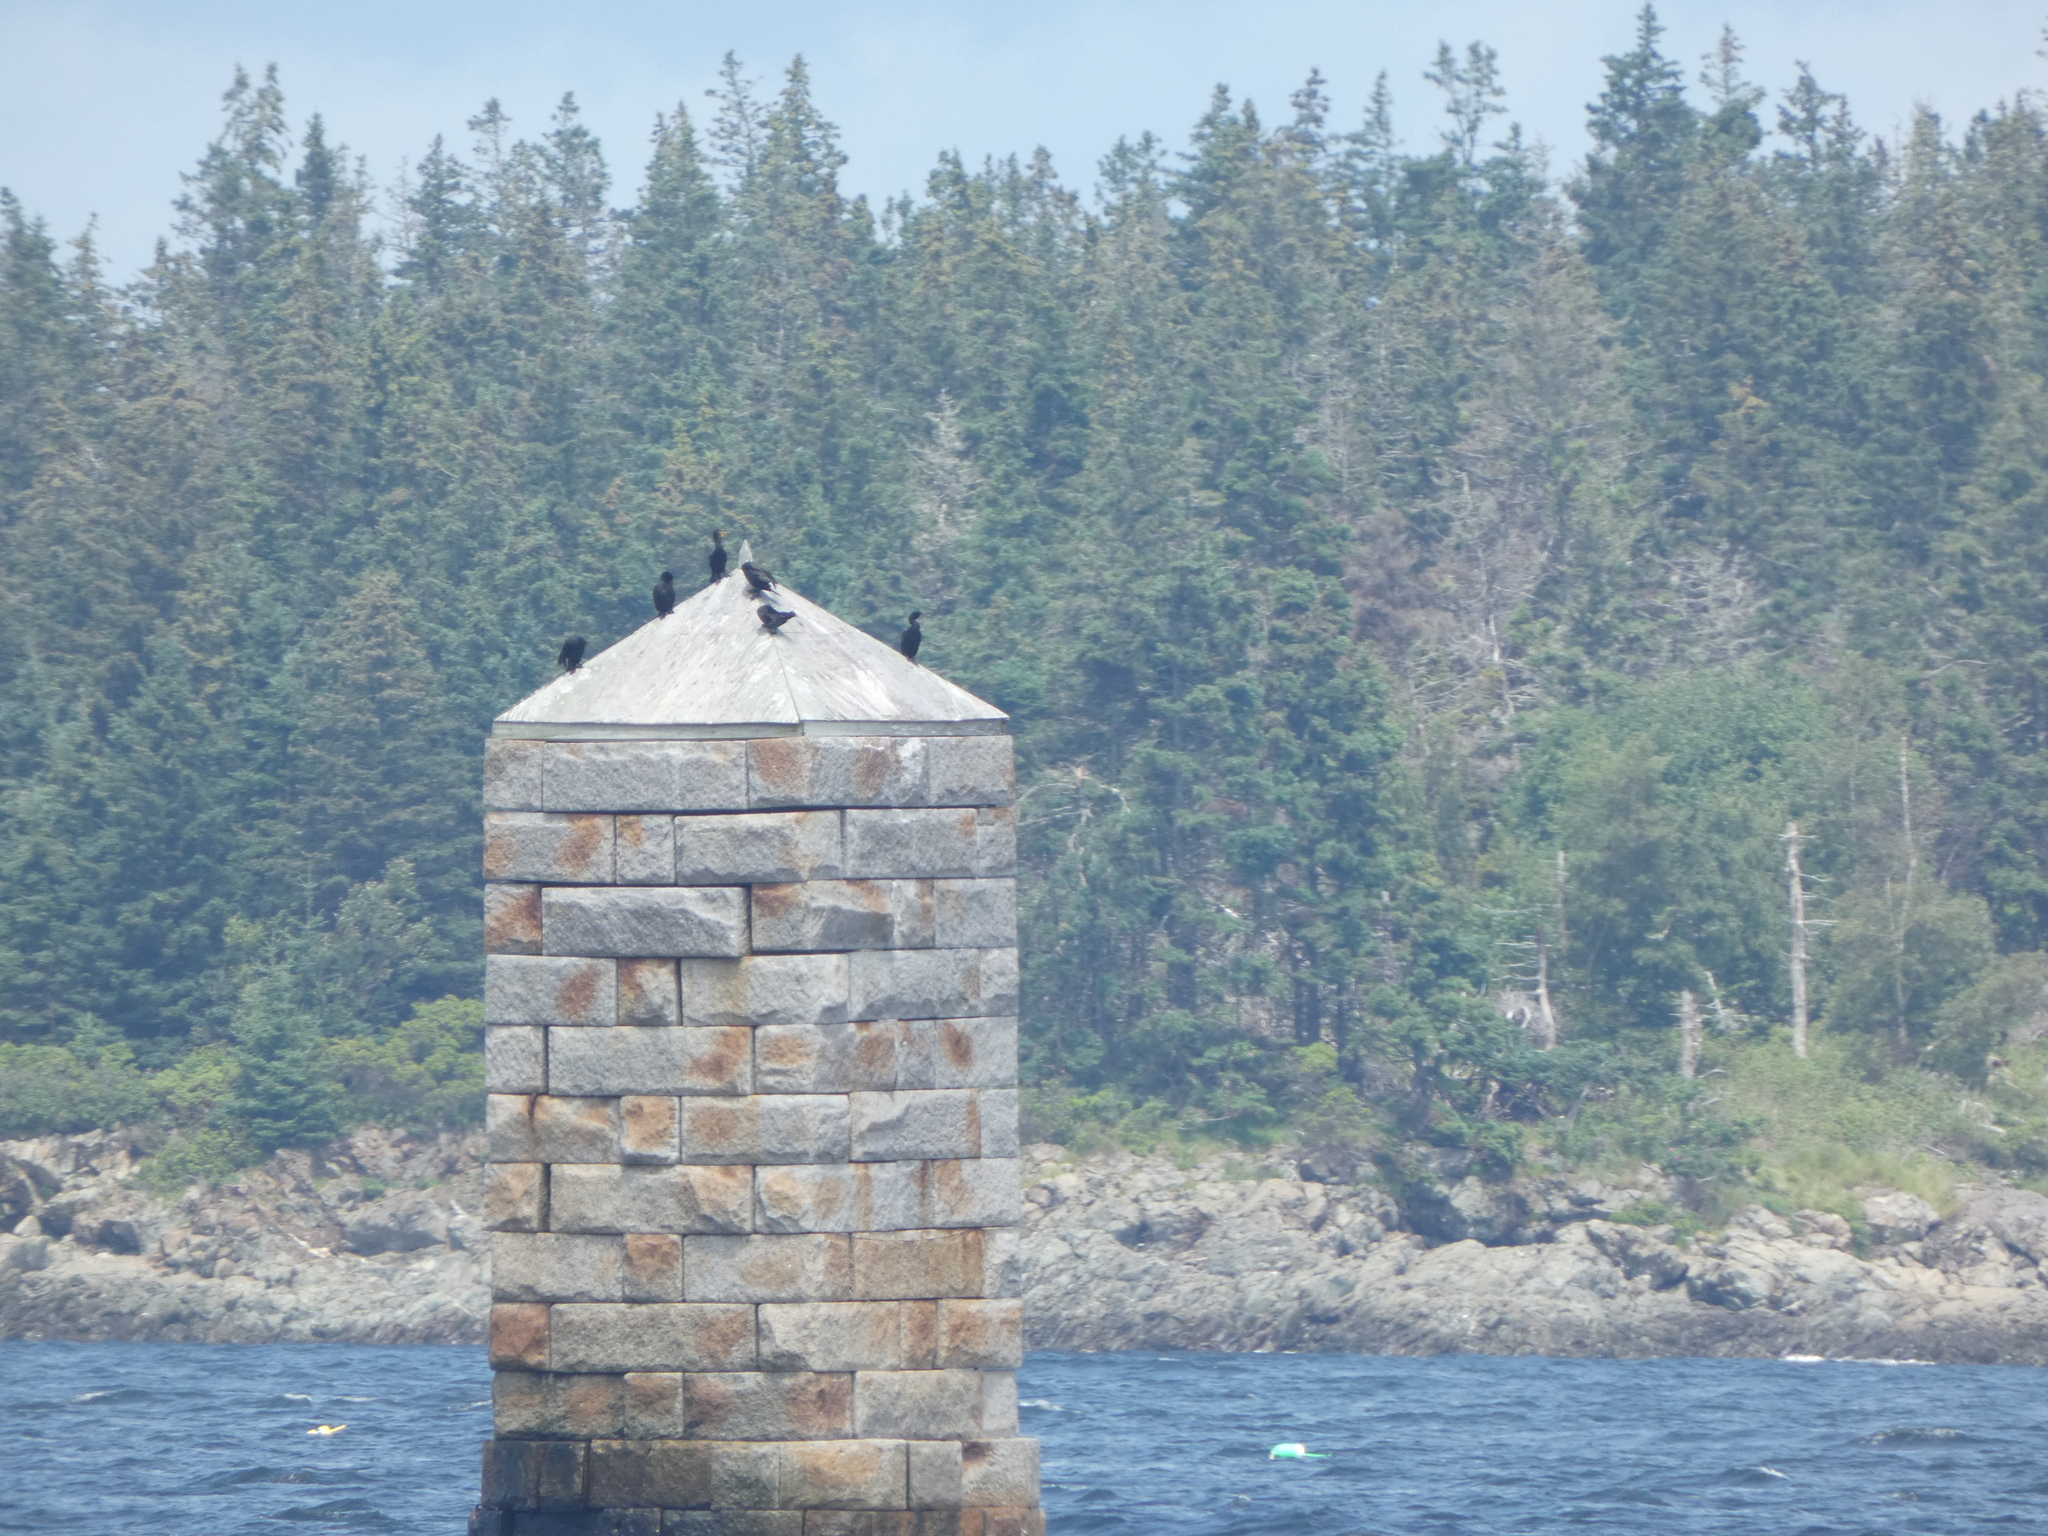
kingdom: Animalia
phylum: Chordata
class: Aves
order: Suliformes
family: Phalacrocoracidae
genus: Phalacrocorax
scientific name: Phalacrocorax auritus
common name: Double-crested cormorant
